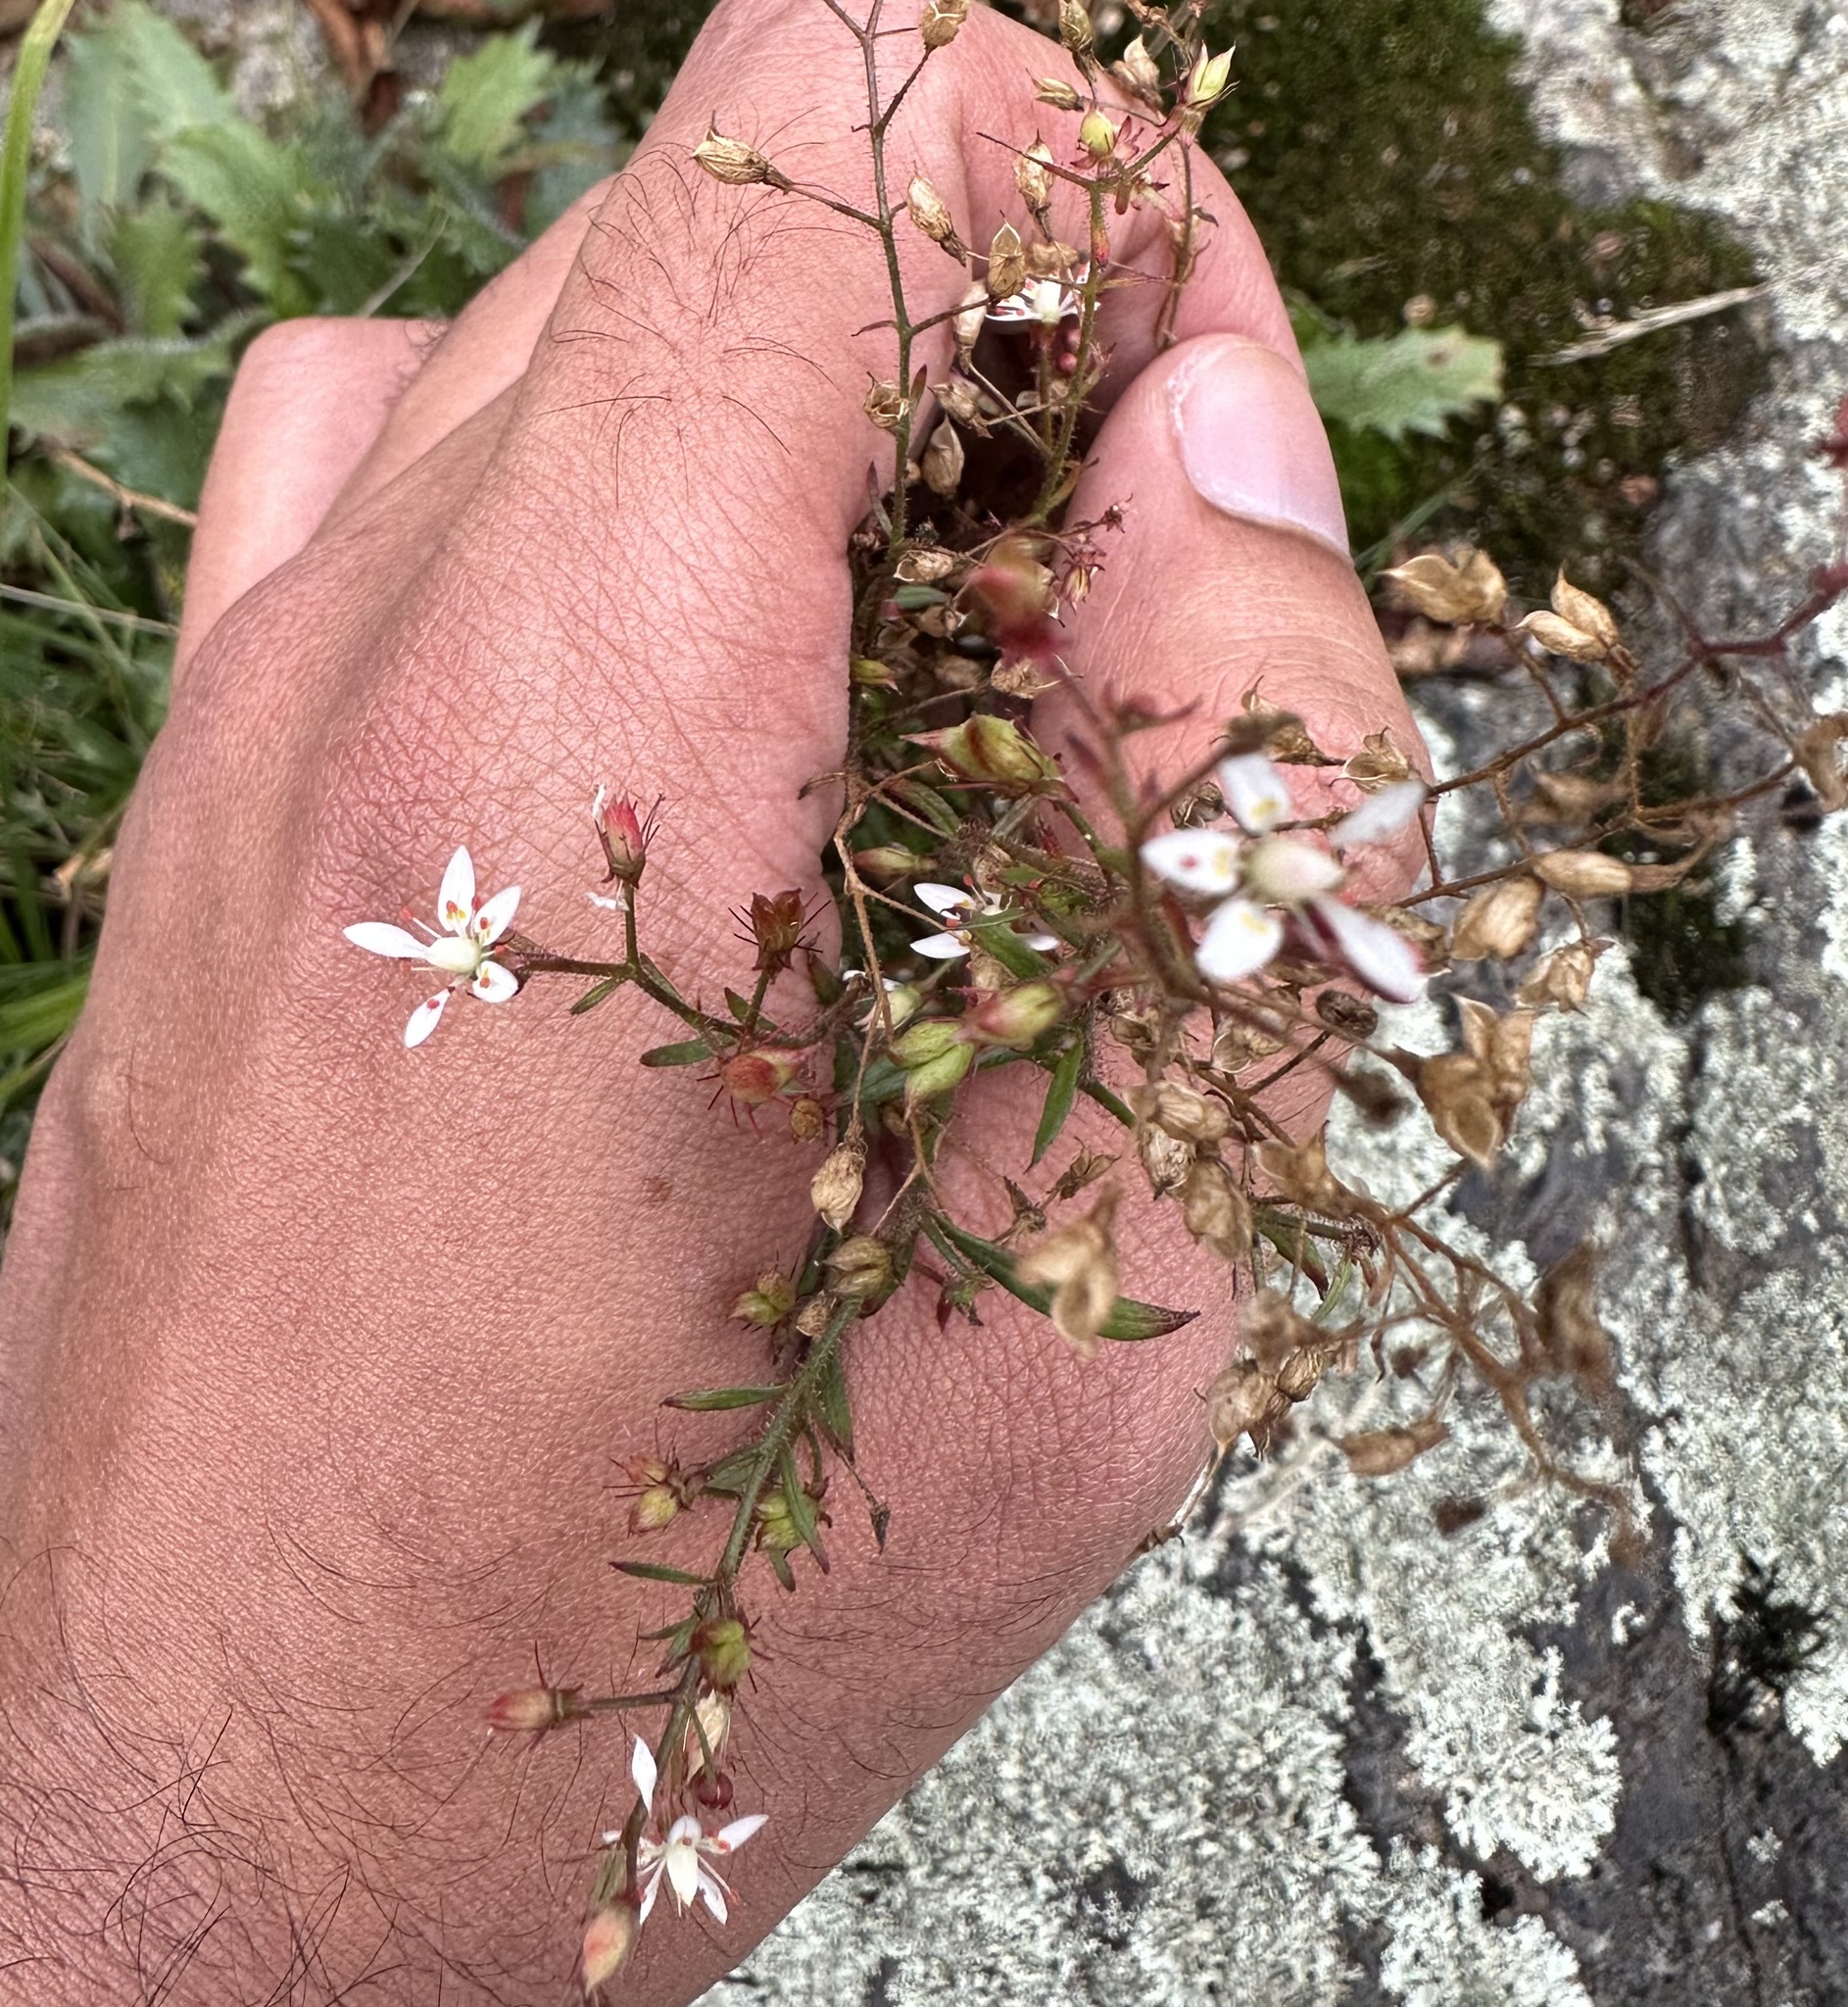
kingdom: Plantae
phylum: Tracheophyta
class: Magnoliopsida
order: Saxifragales
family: Saxifragaceae
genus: Micranthes
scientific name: Micranthes petiolaris
